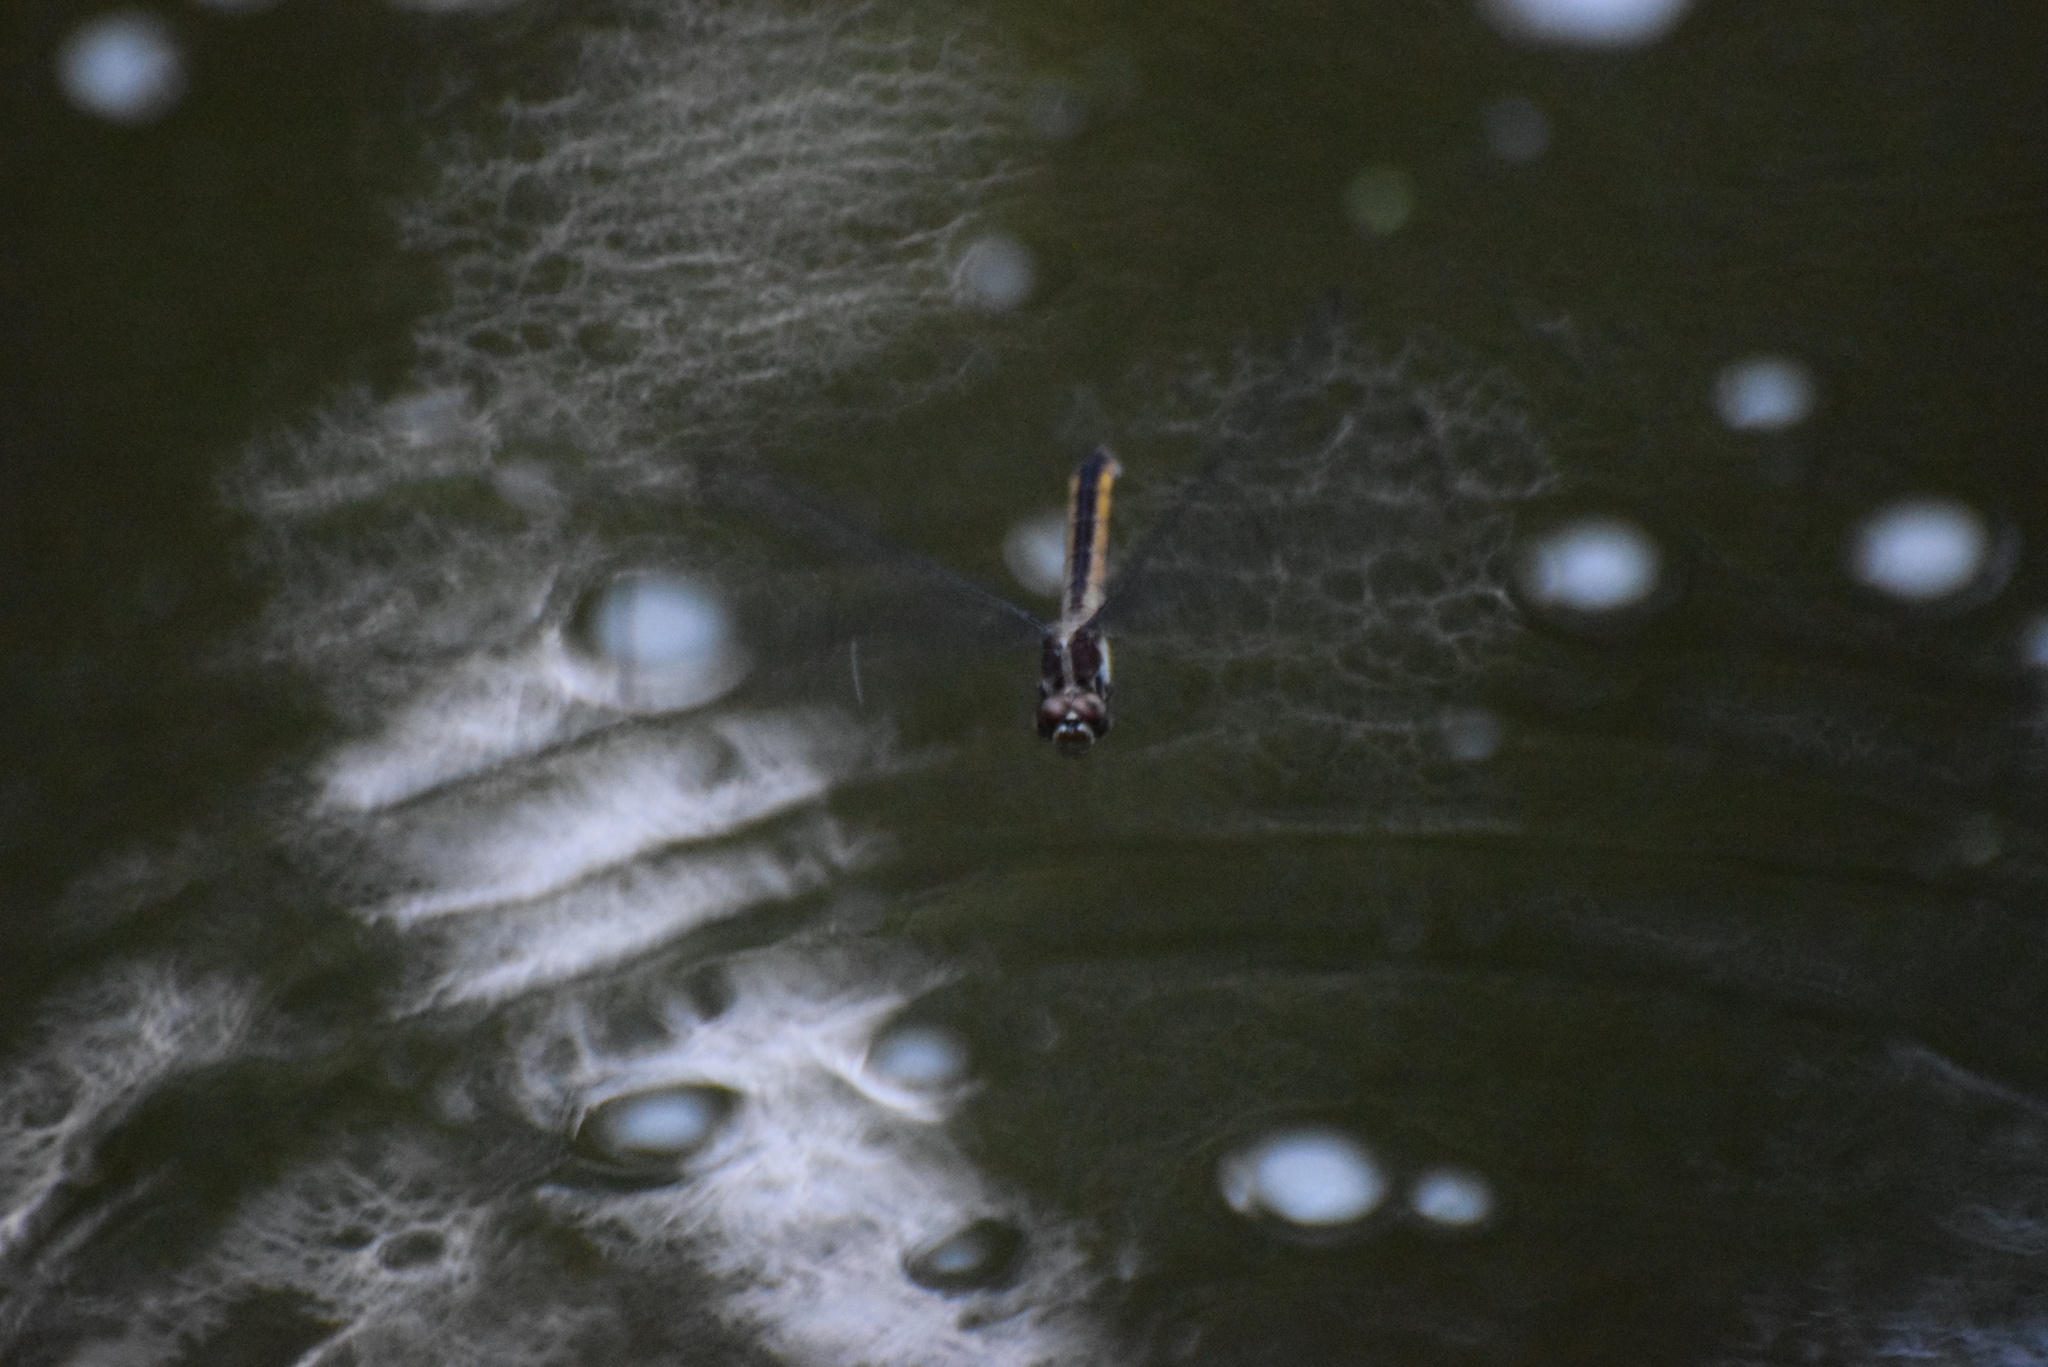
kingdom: Animalia
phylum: Arthropoda
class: Insecta
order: Odonata
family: Libellulidae
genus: Libellula
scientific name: Libellula incesta
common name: Slaty skimmer
